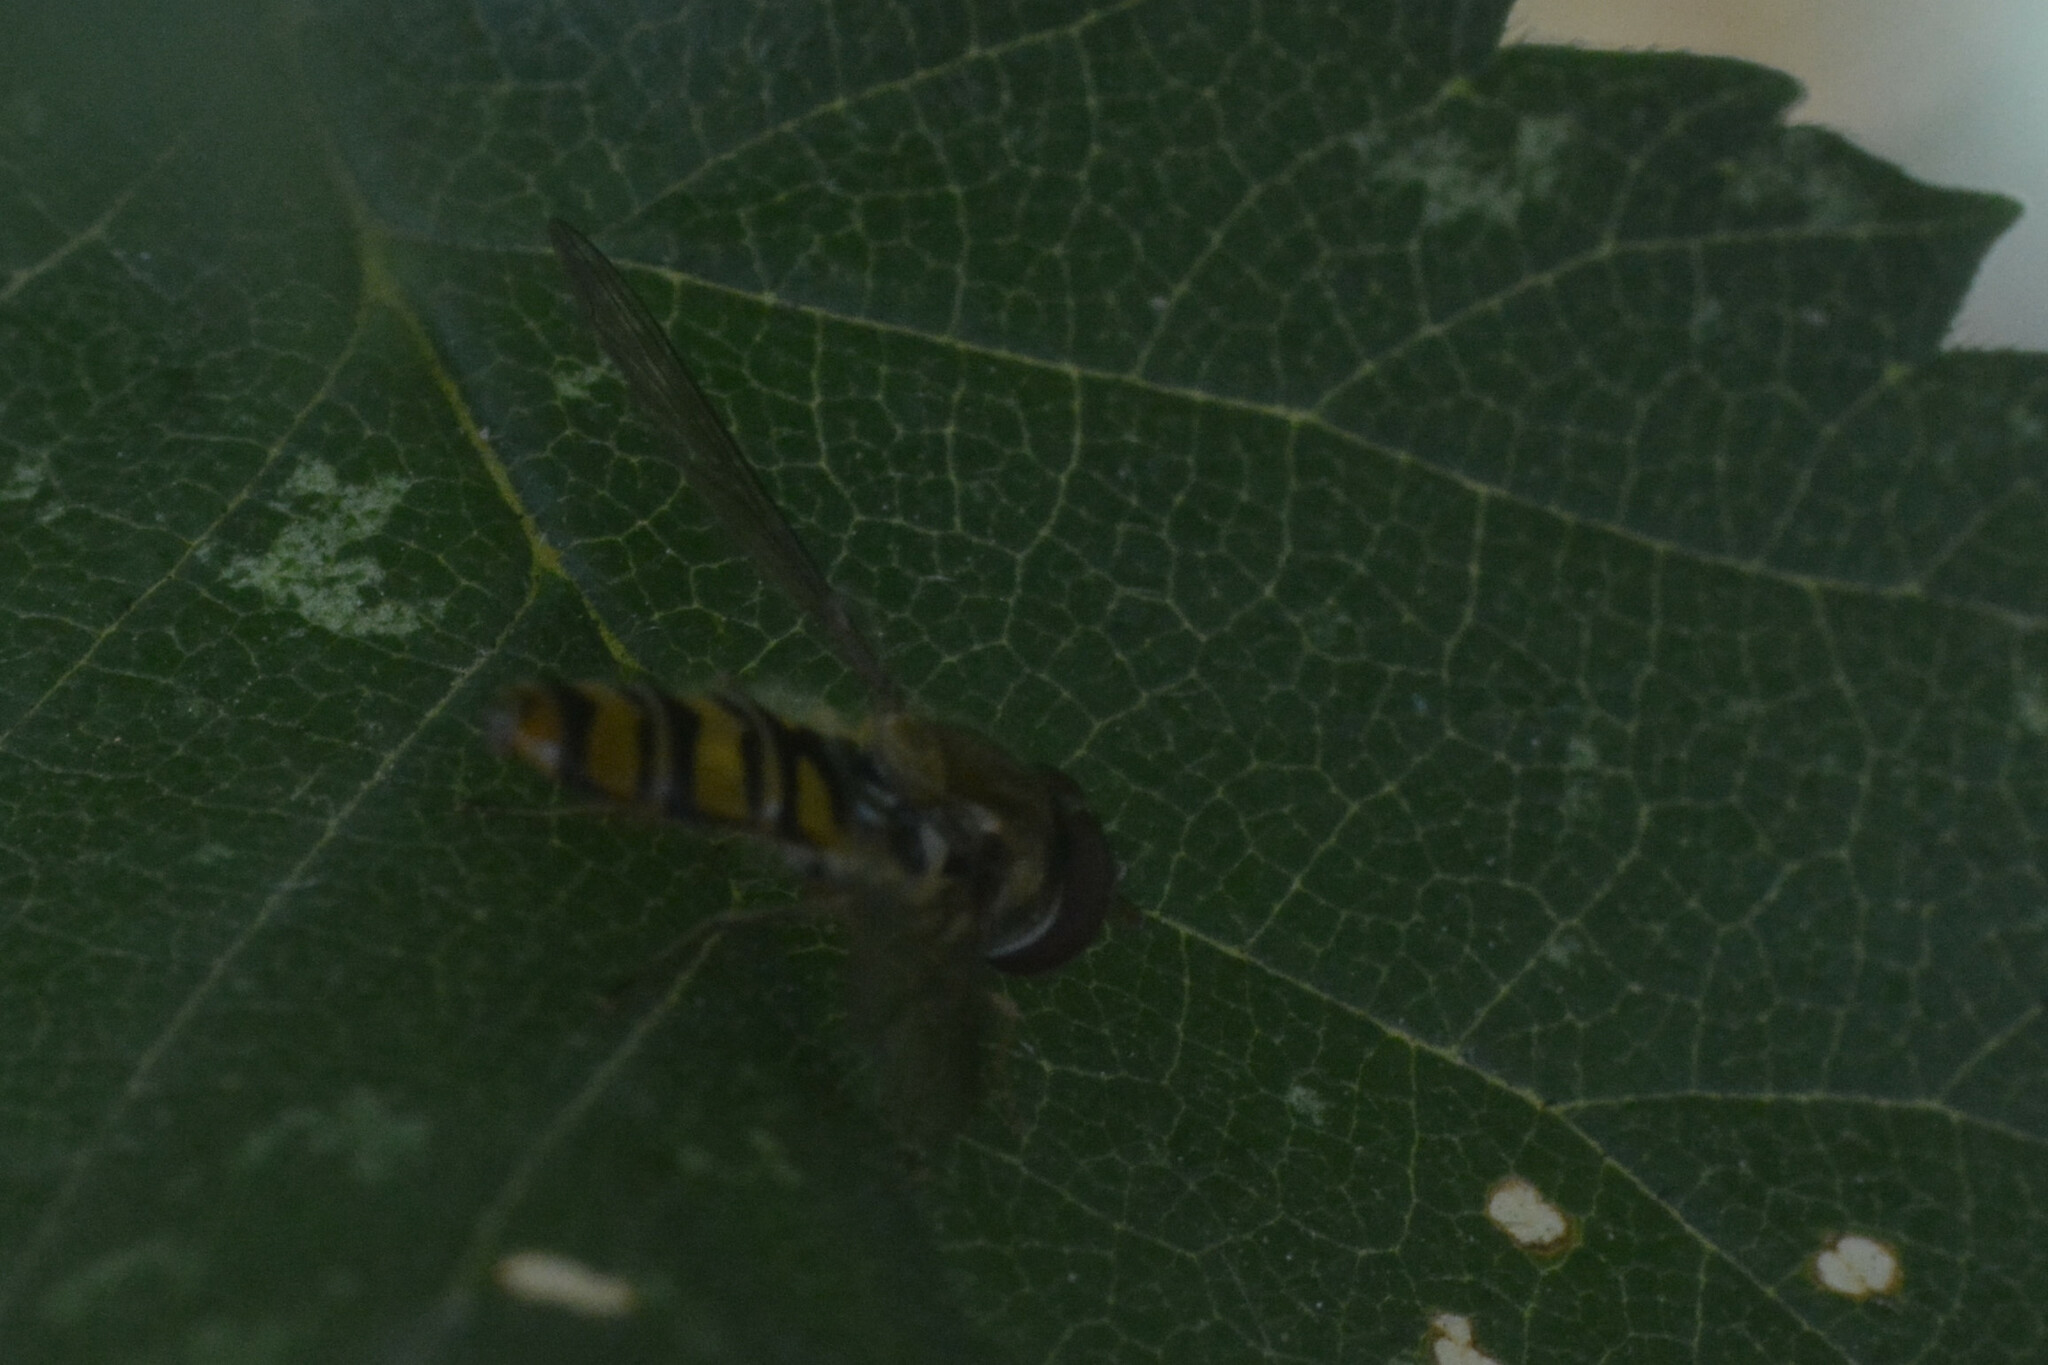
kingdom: Animalia
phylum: Arthropoda
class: Insecta
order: Diptera
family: Syrphidae
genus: Episyrphus
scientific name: Episyrphus balteatus
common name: Marmalade hoverfly
